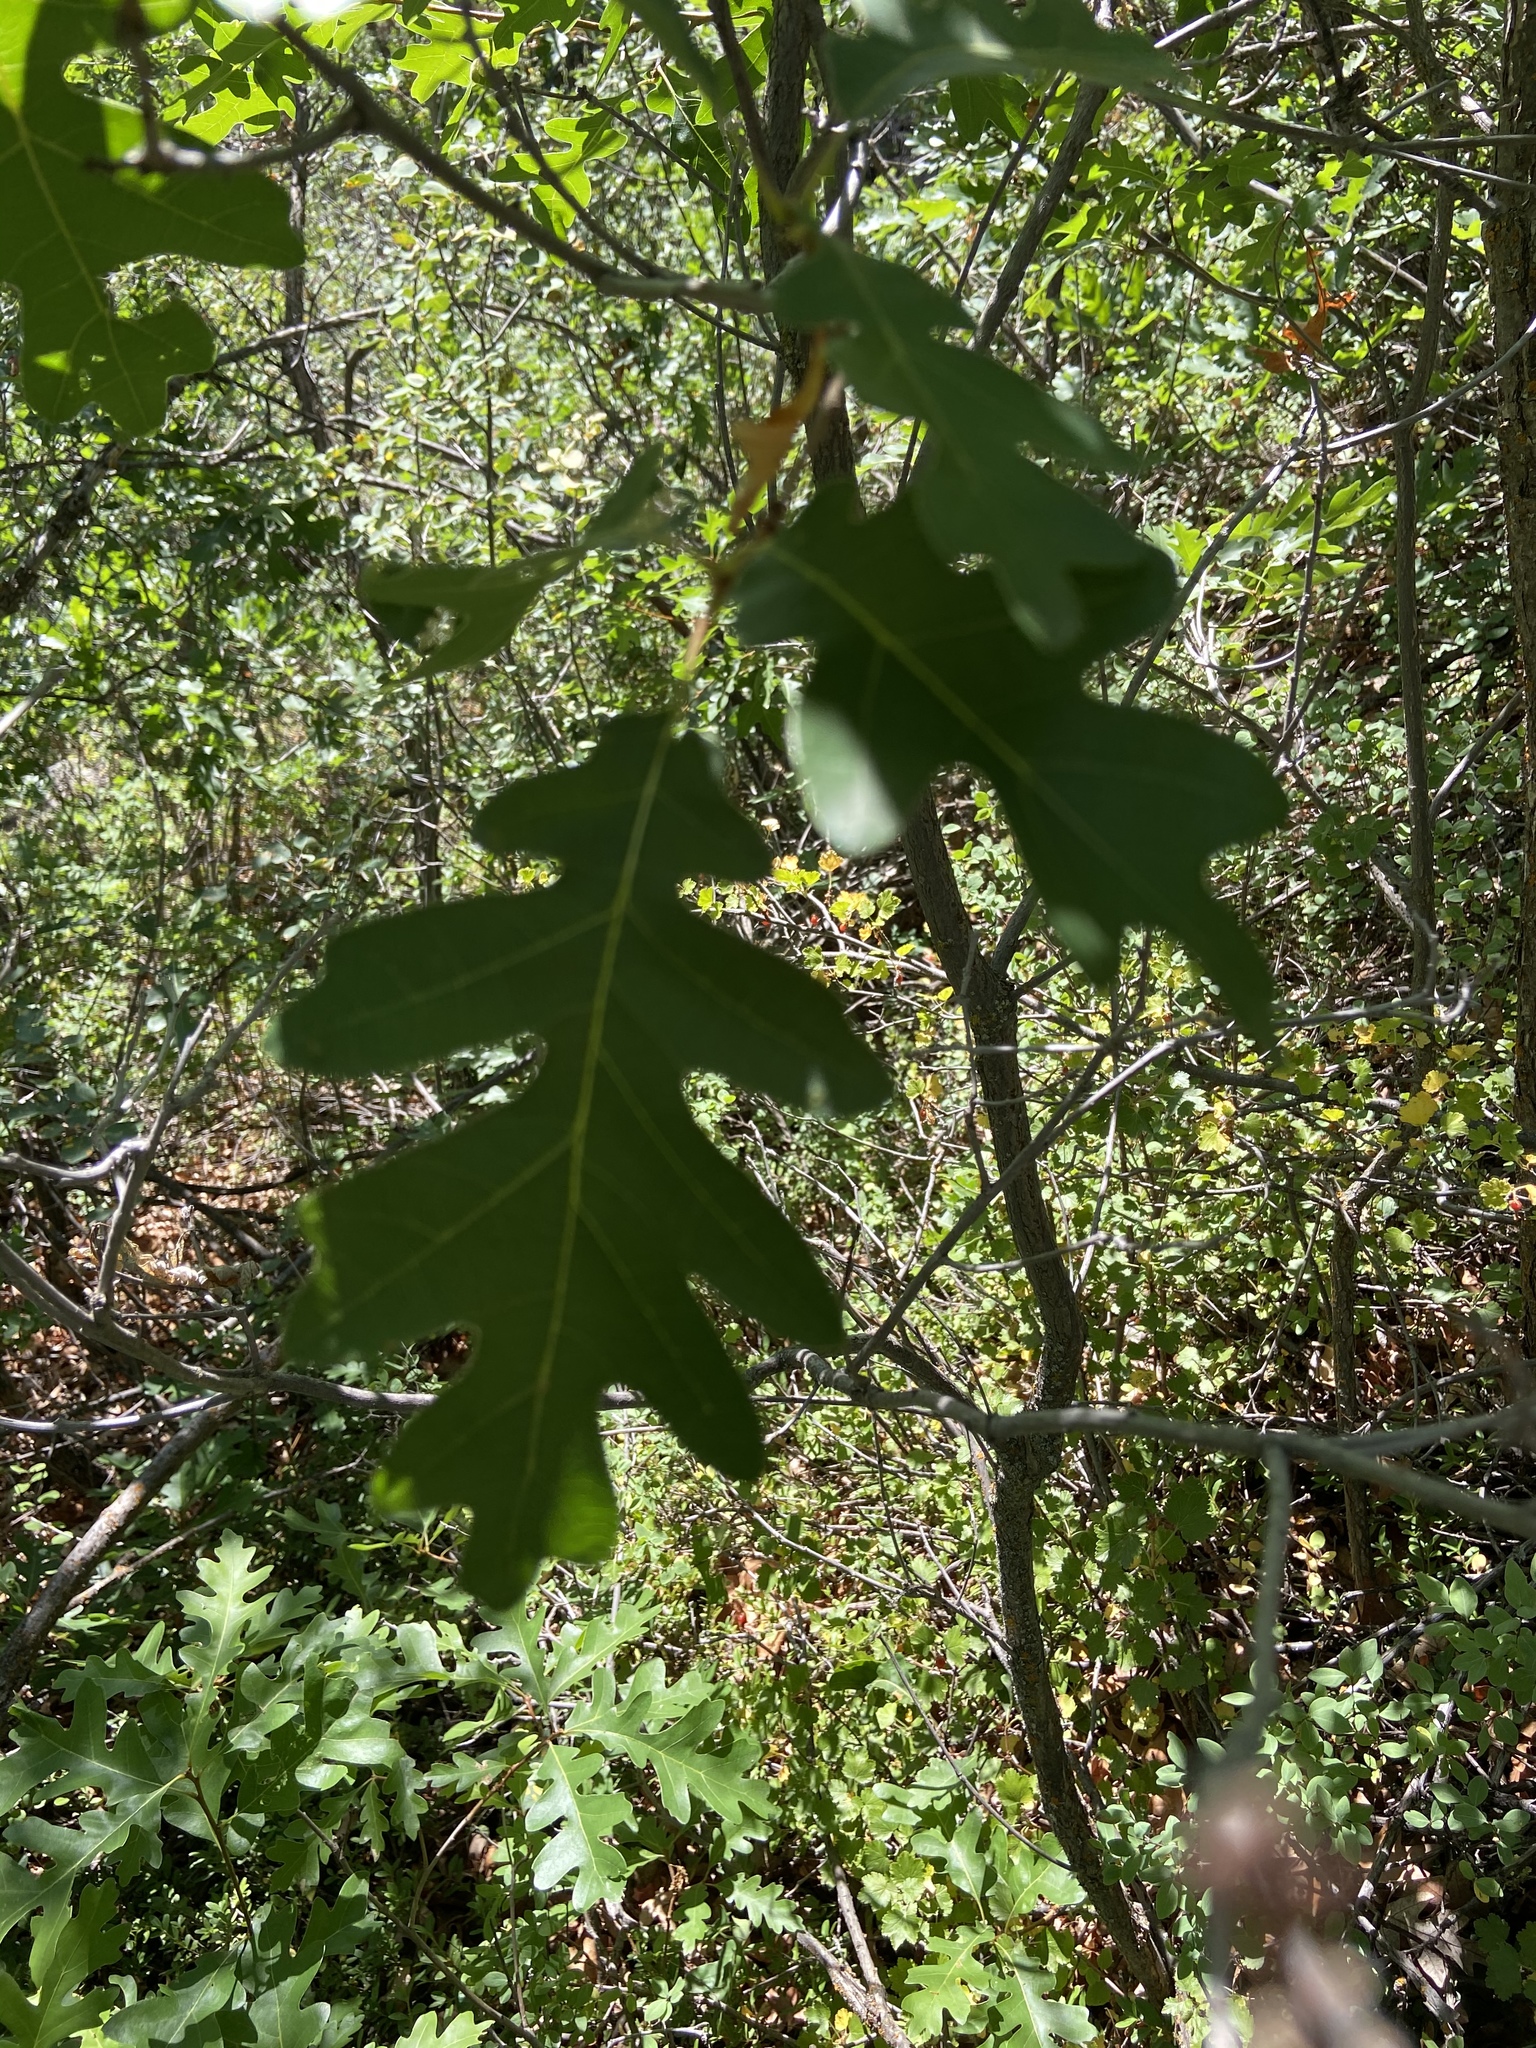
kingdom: Plantae
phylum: Tracheophyta
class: Magnoliopsida
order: Fagales
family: Fagaceae
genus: Quercus
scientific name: Quercus gambelii
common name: Gambel oak
